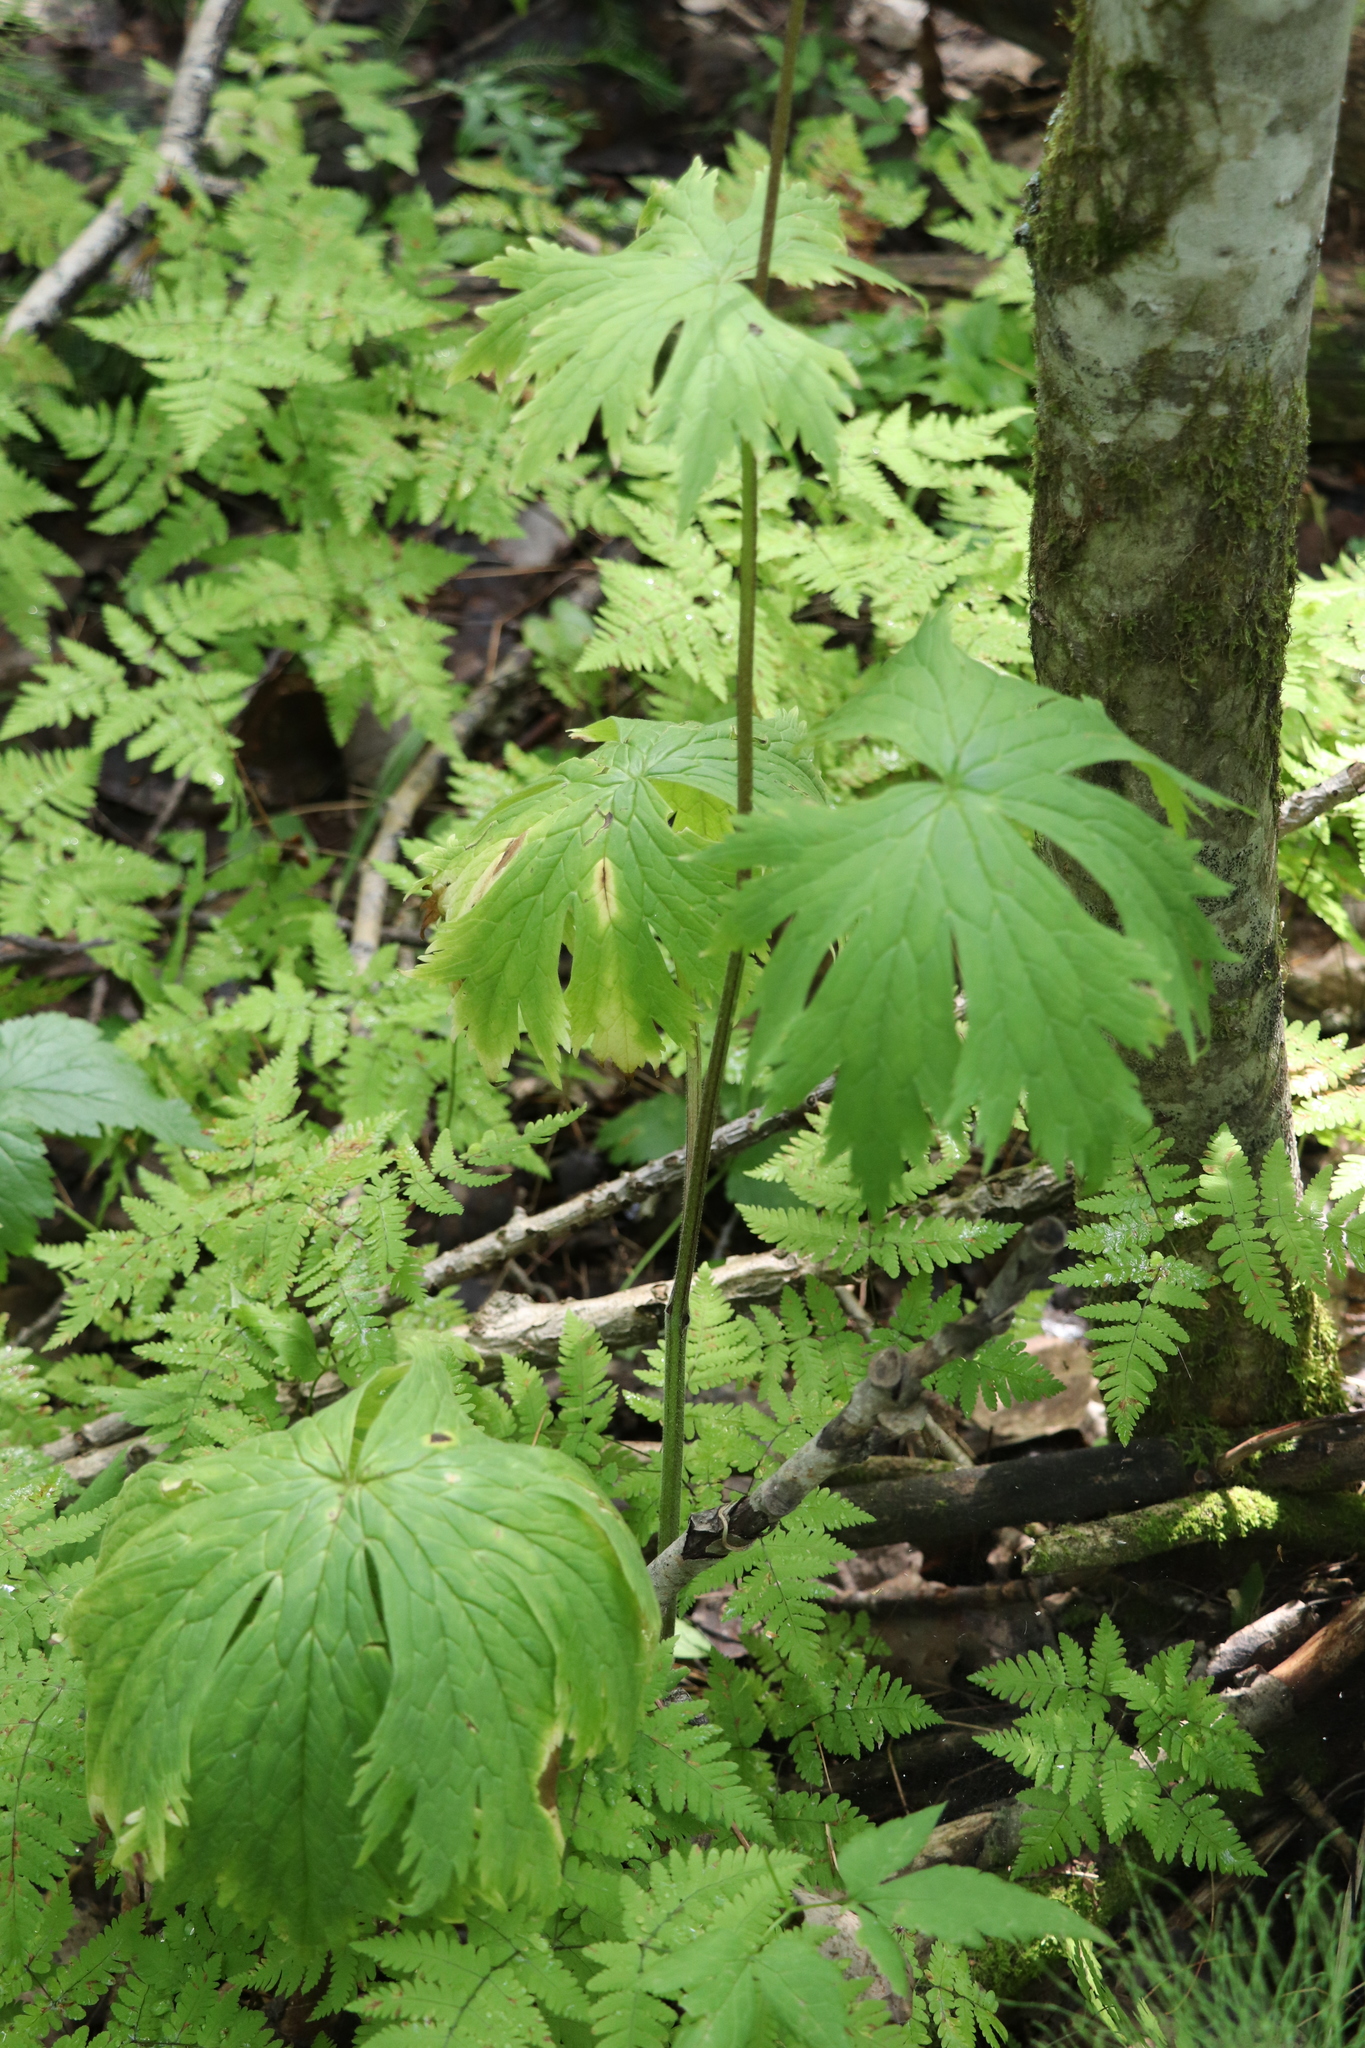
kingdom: Plantae
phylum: Tracheophyta
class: Magnoliopsida
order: Ranunculales
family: Ranunculaceae
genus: Aconitum
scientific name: Aconitum septentrionale
